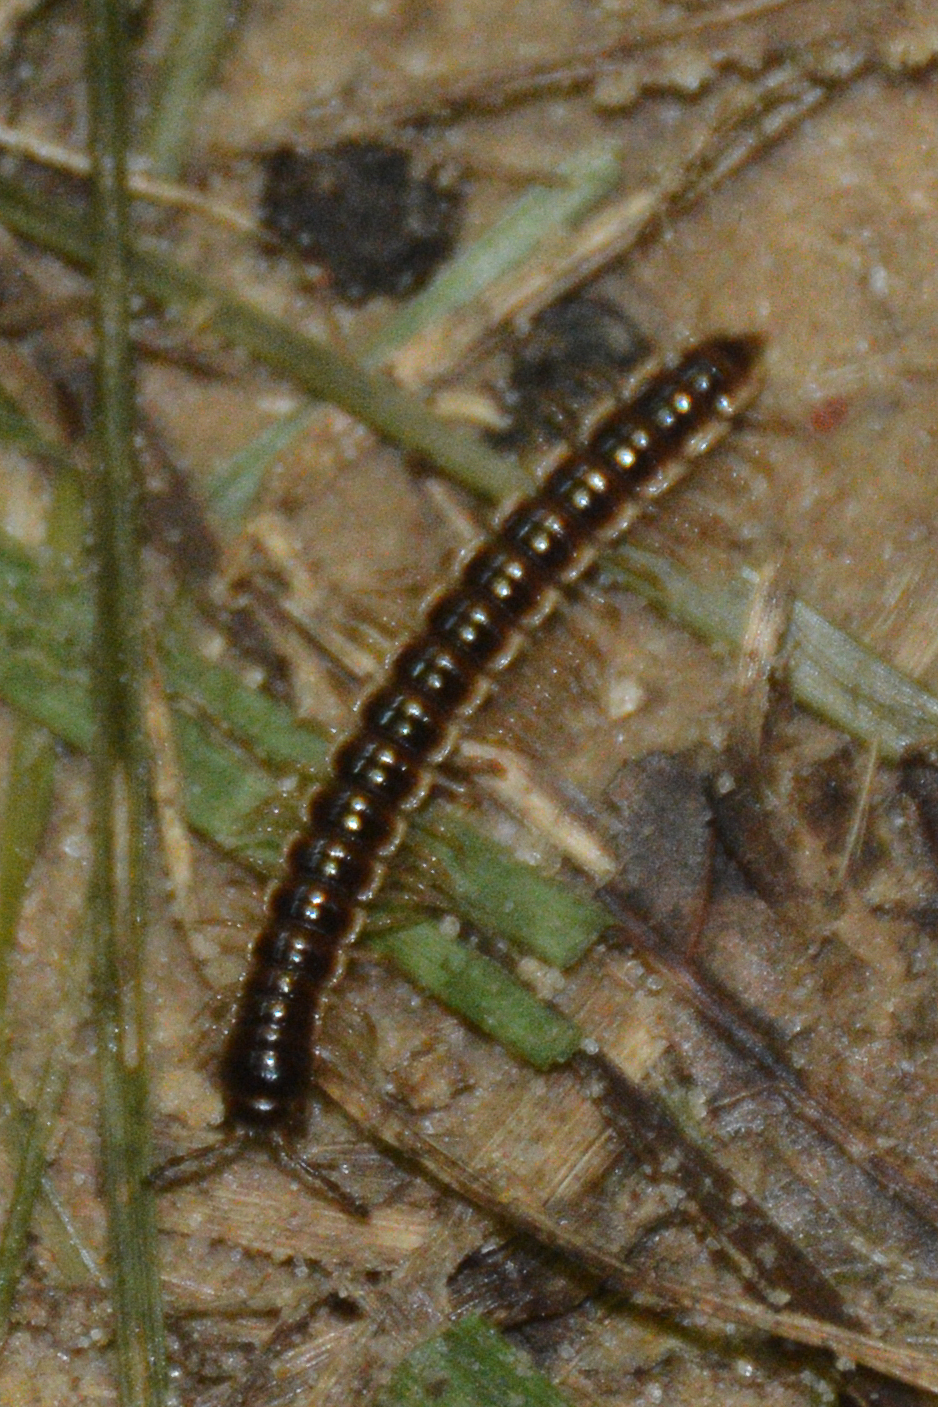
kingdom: Animalia
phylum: Arthropoda
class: Diplopoda
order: Polydesmida
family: Paradoxosomatidae
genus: Oxidus
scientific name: Oxidus gracilis
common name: Greenhouse millipede
